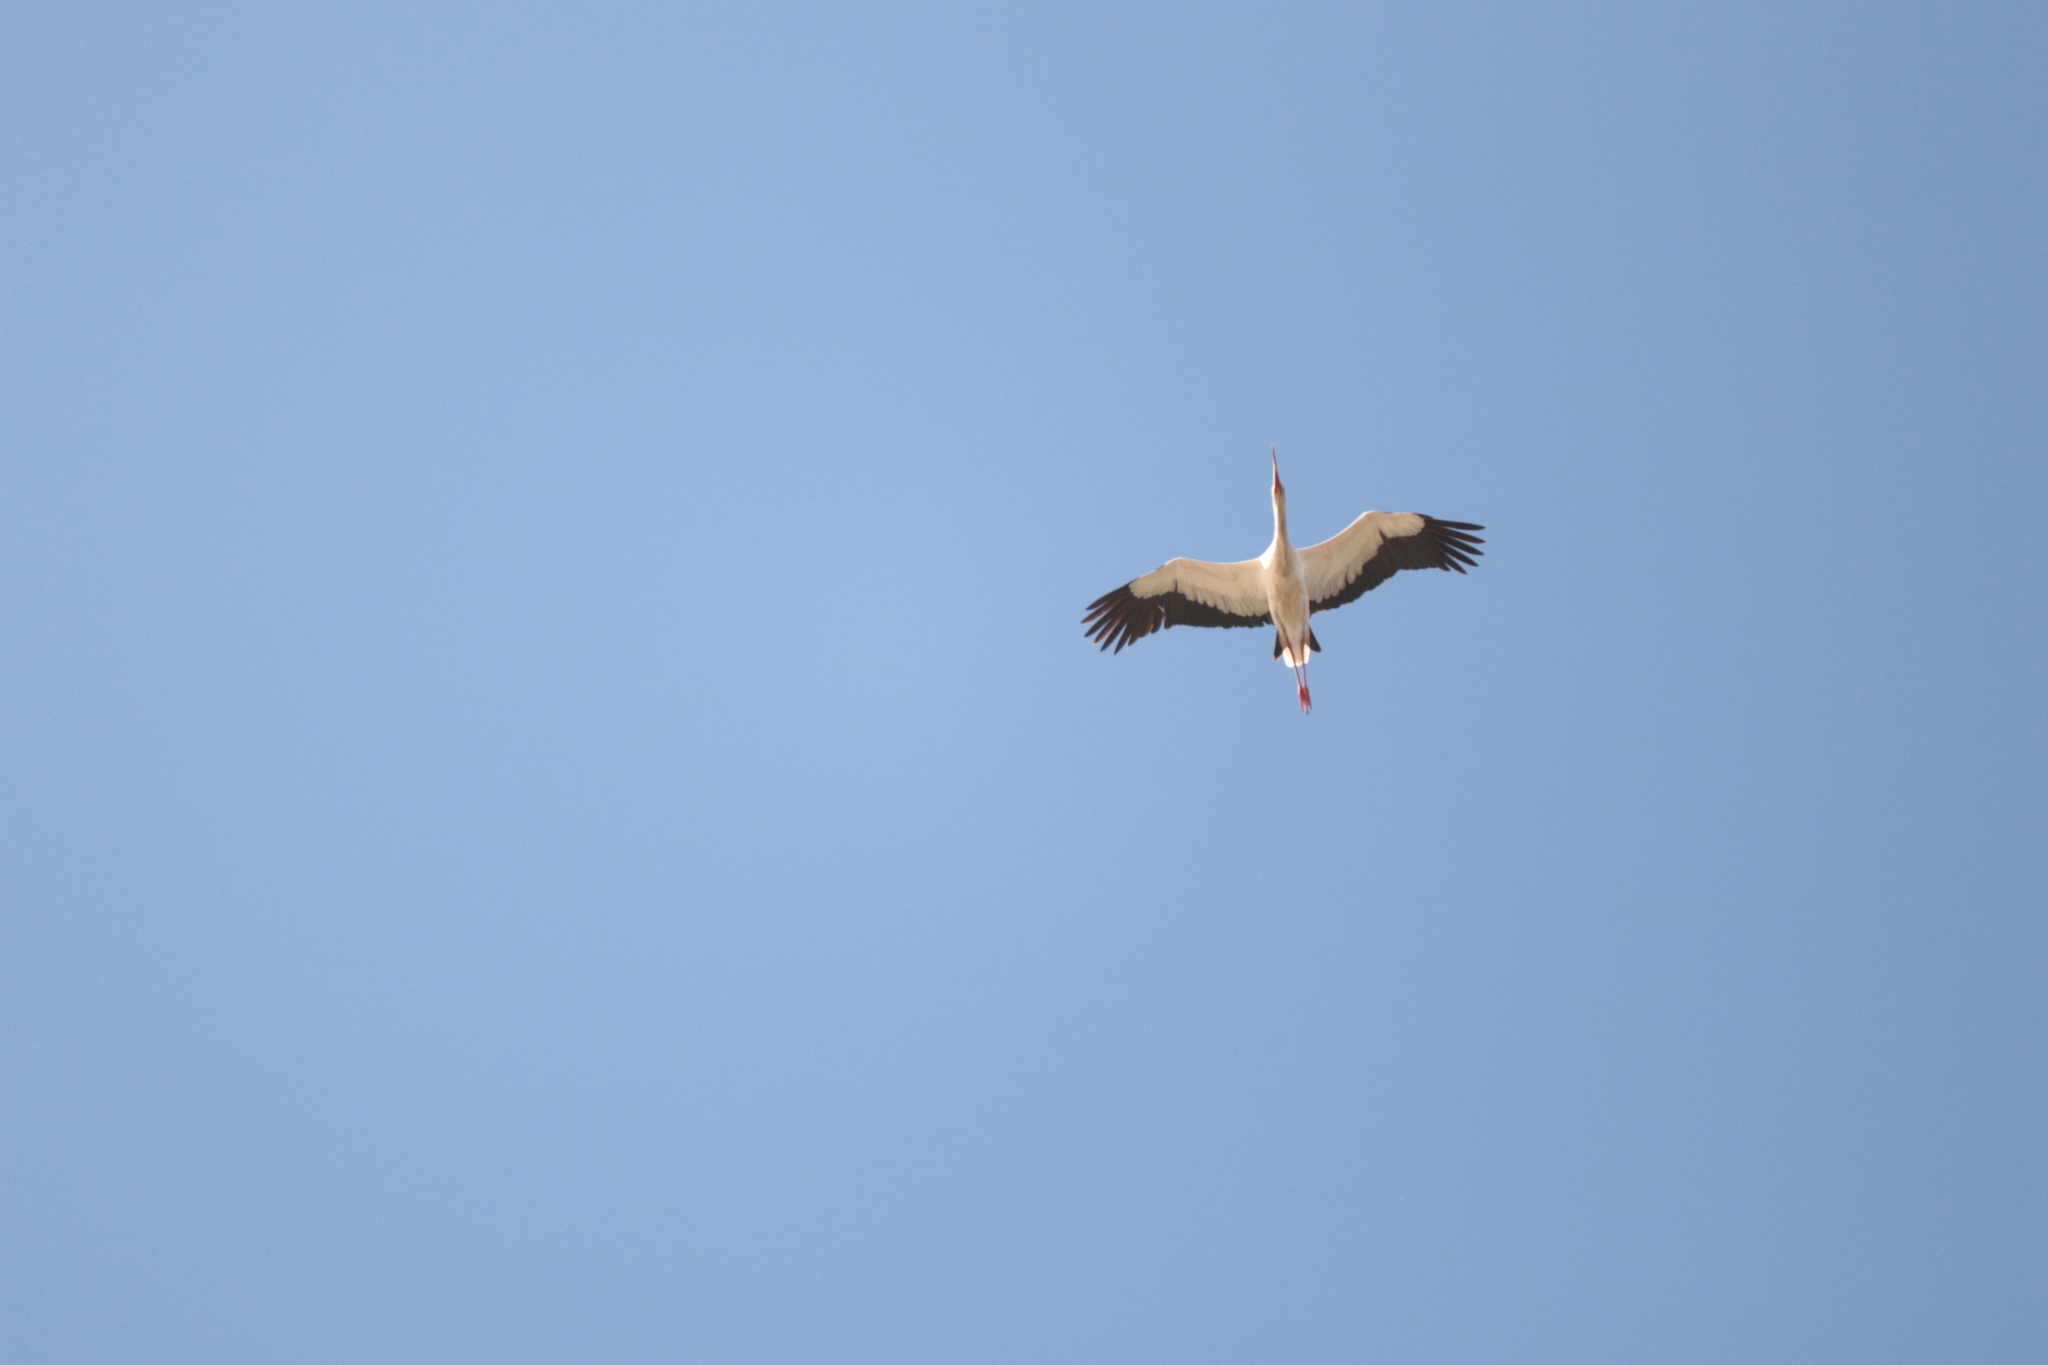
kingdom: Animalia
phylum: Chordata
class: Aves
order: Ciconiiformes
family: Ciconiidae
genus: Ciconia
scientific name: Ciconia maguari
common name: Maguari stork
